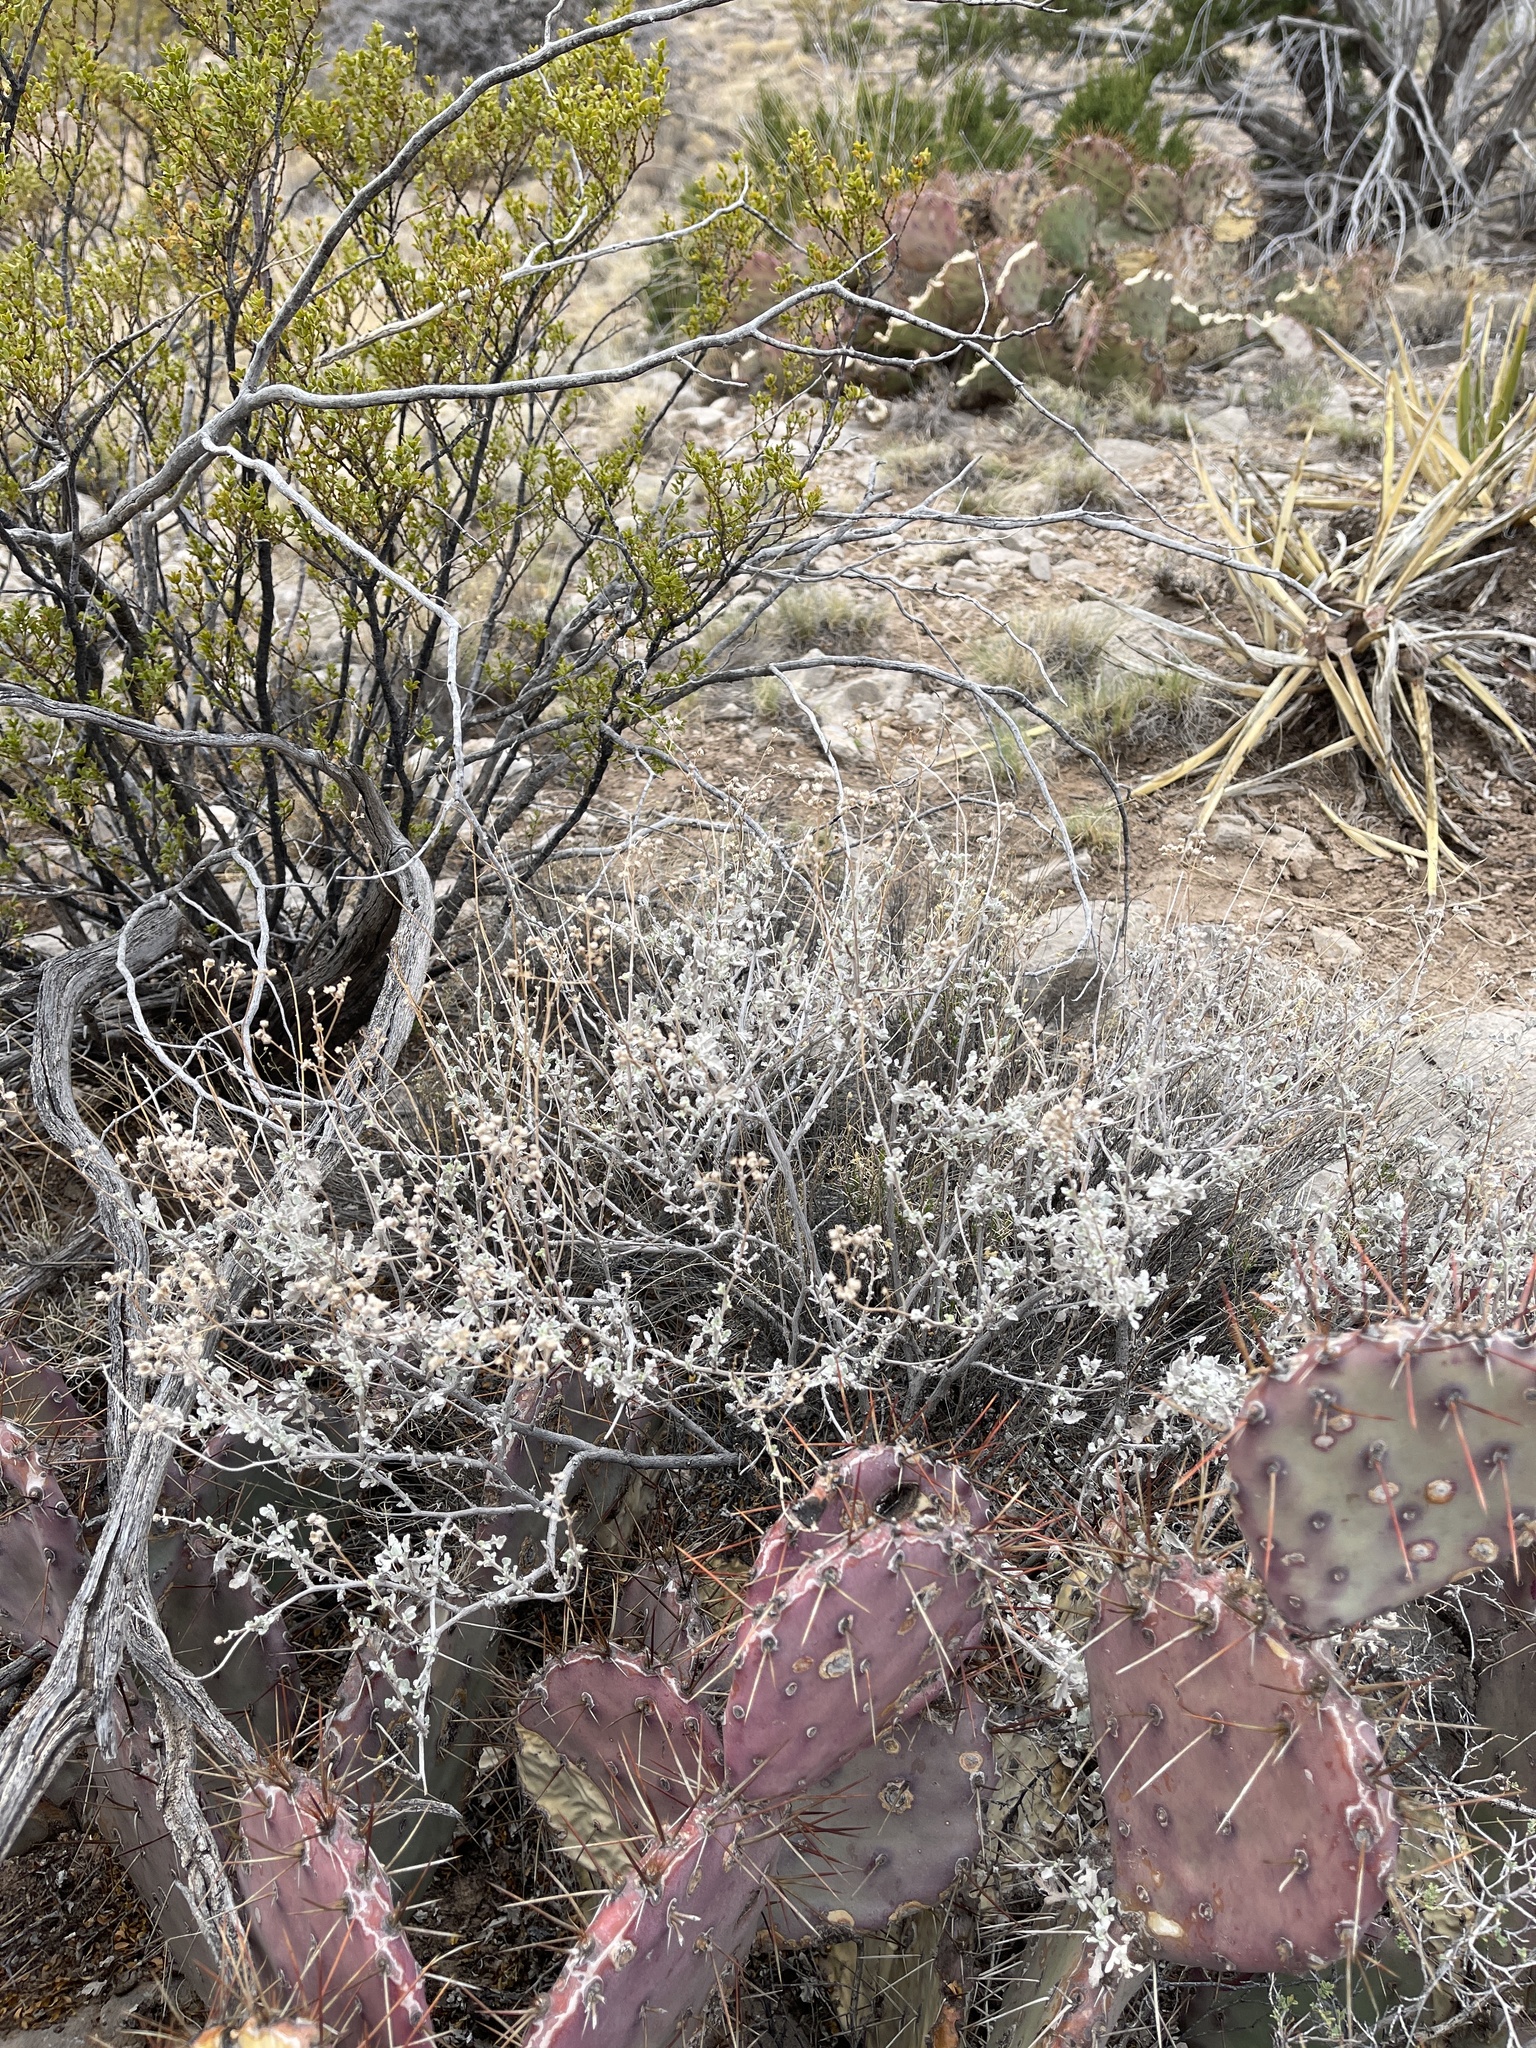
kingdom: Plantae
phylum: Tracheophyta
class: Magnoliopsida
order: Asterales
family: Asteraceae
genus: Parthenium
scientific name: Parthenium incanum
